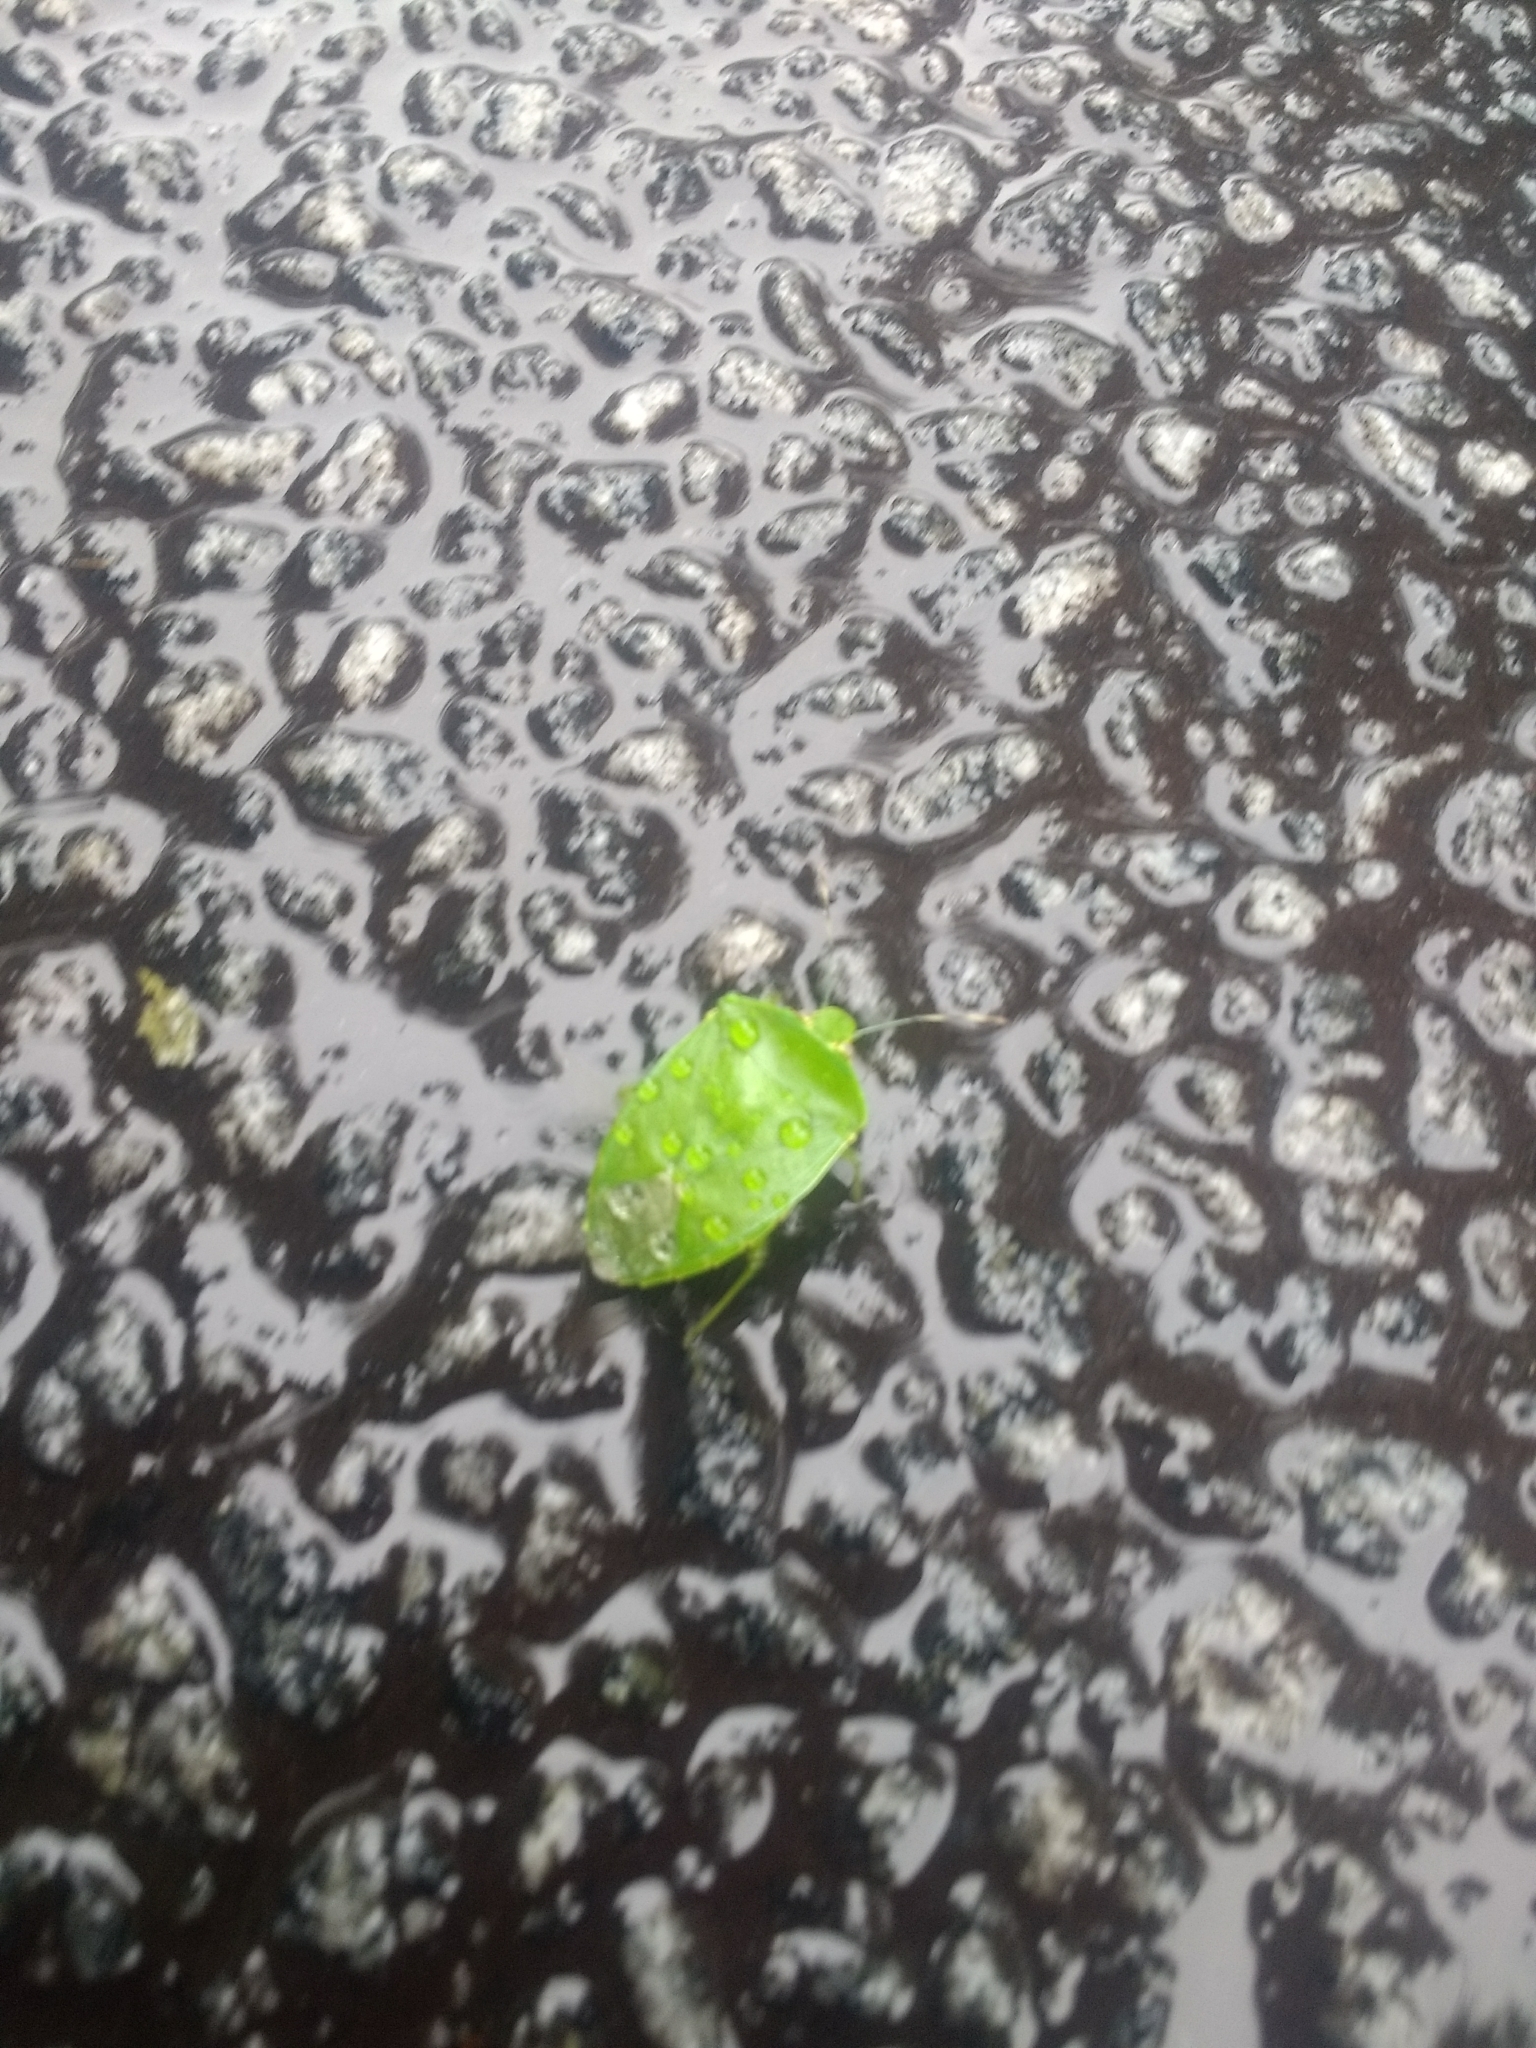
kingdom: Animalia
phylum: Arthropoda
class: Insecta
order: Hemiptera
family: Pentatomidae
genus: Chinavia
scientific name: Chinavia hilaris
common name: Green stink bug
